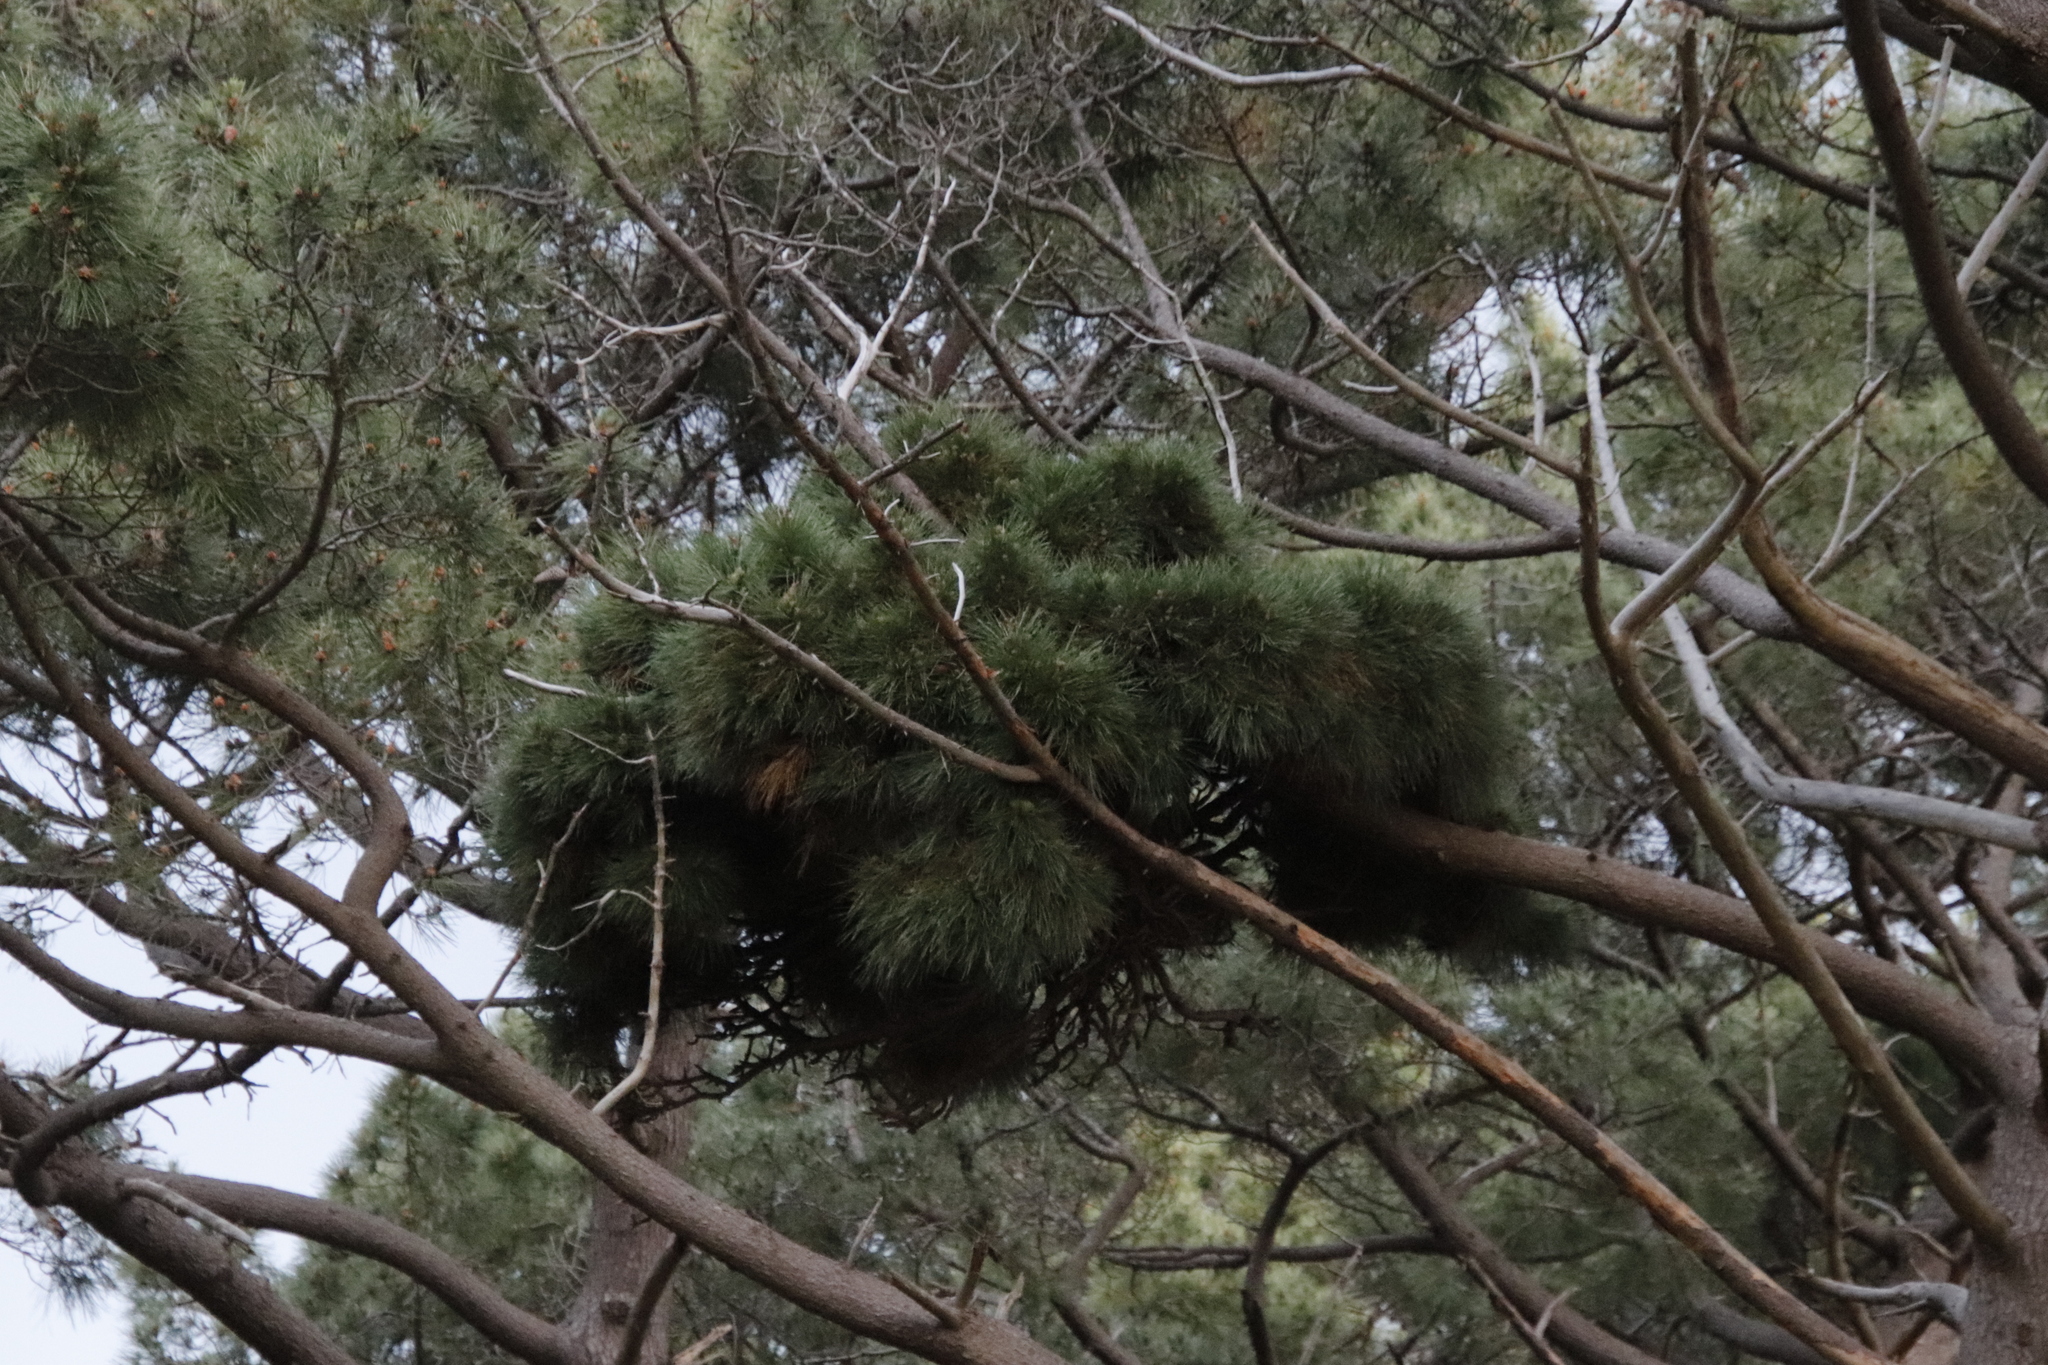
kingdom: Bacteria
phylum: Firmicutes
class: Bacilli
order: Acholeplasmatales
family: Acholeplasmataceae
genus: Phytoplasma
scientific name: Phytoplasma pini
